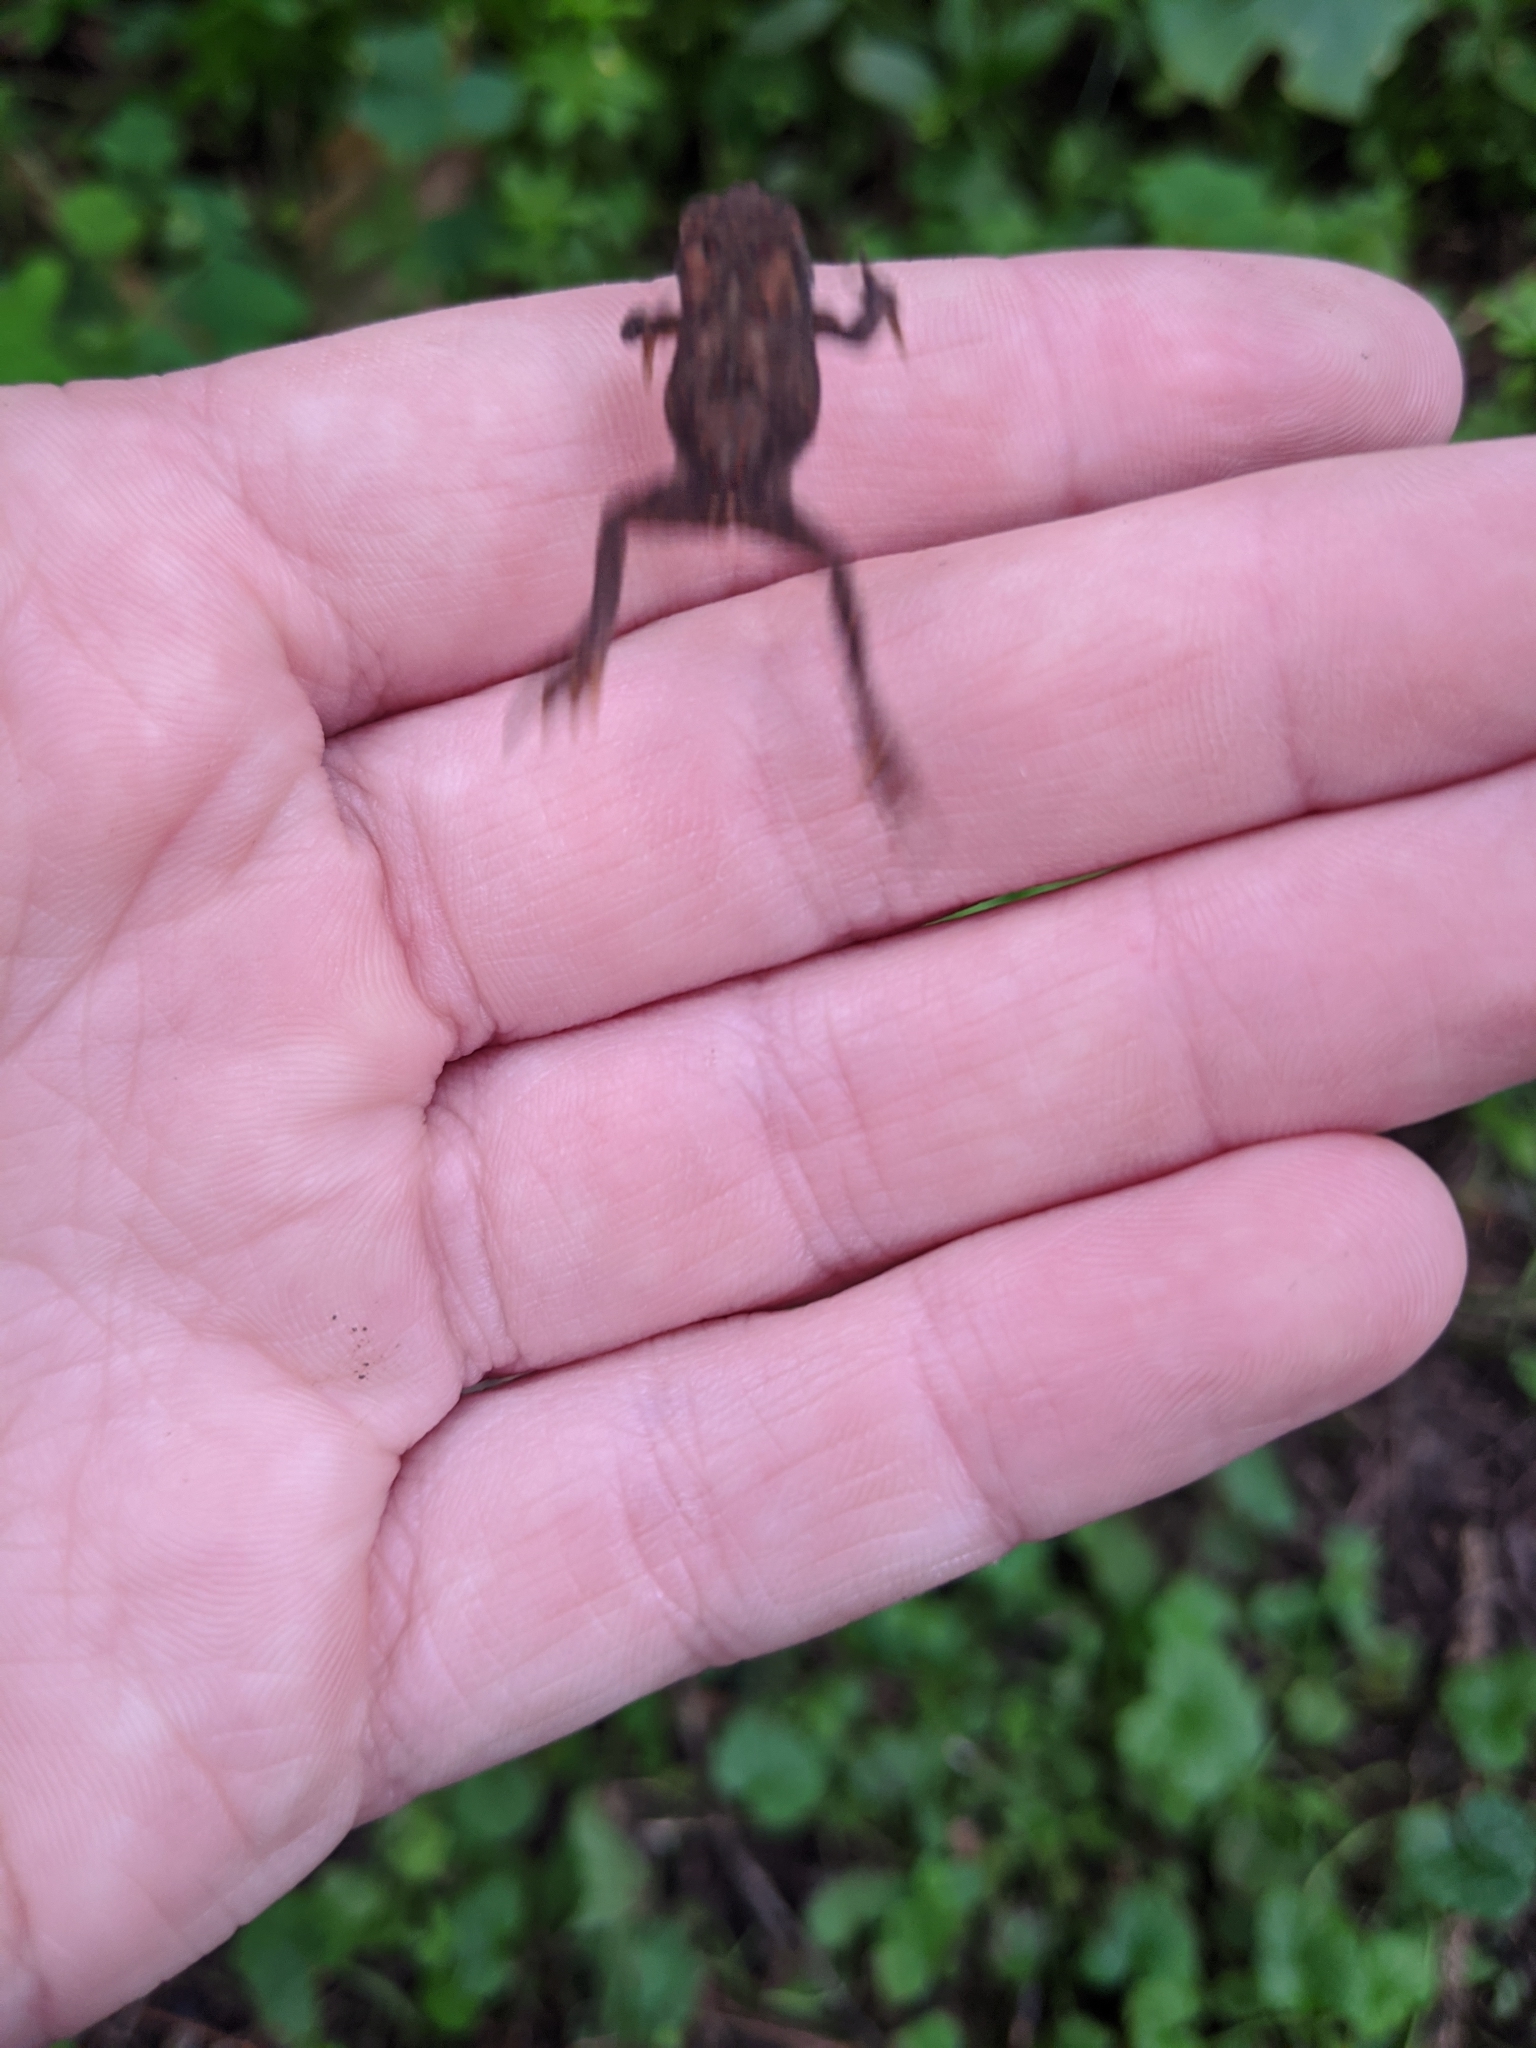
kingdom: Animalia
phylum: Chordata
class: Amphibia
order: Anura
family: Bufonidae
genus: Anaxyrus
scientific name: Anaxyrus americanus
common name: American toad
